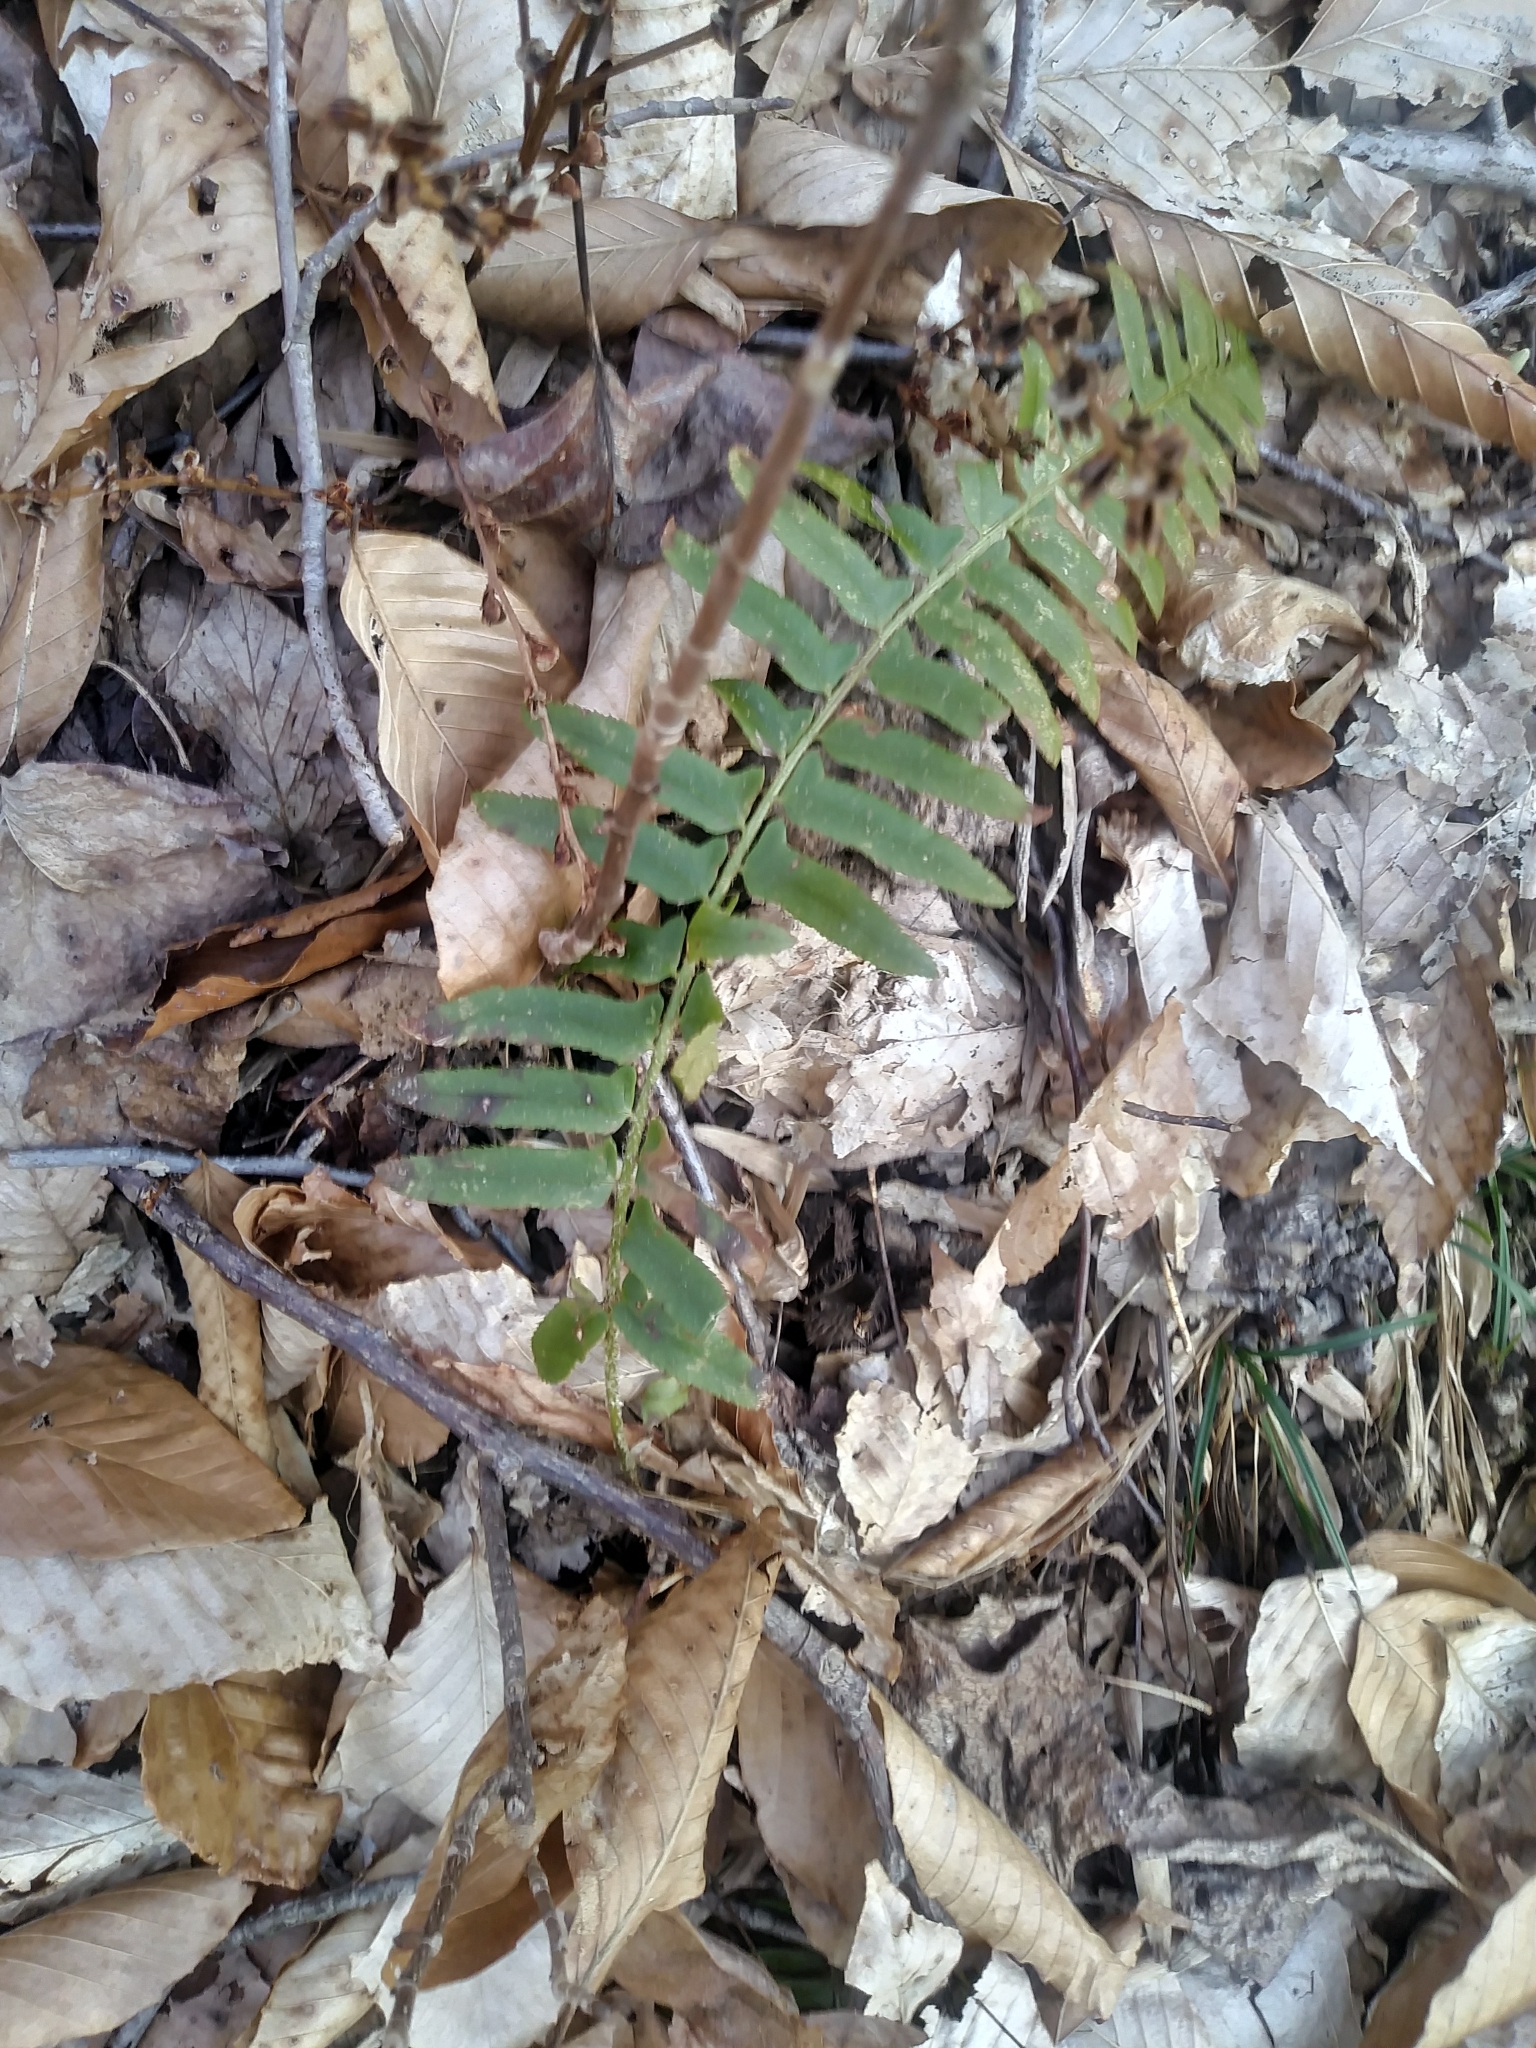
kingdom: Plantae
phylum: Tracheophyta
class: Polypodiopsida
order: Polypodiales
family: Dryopteridaceae
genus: Polystichum
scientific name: Polystichum acrostichoides
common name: Christmas fern
